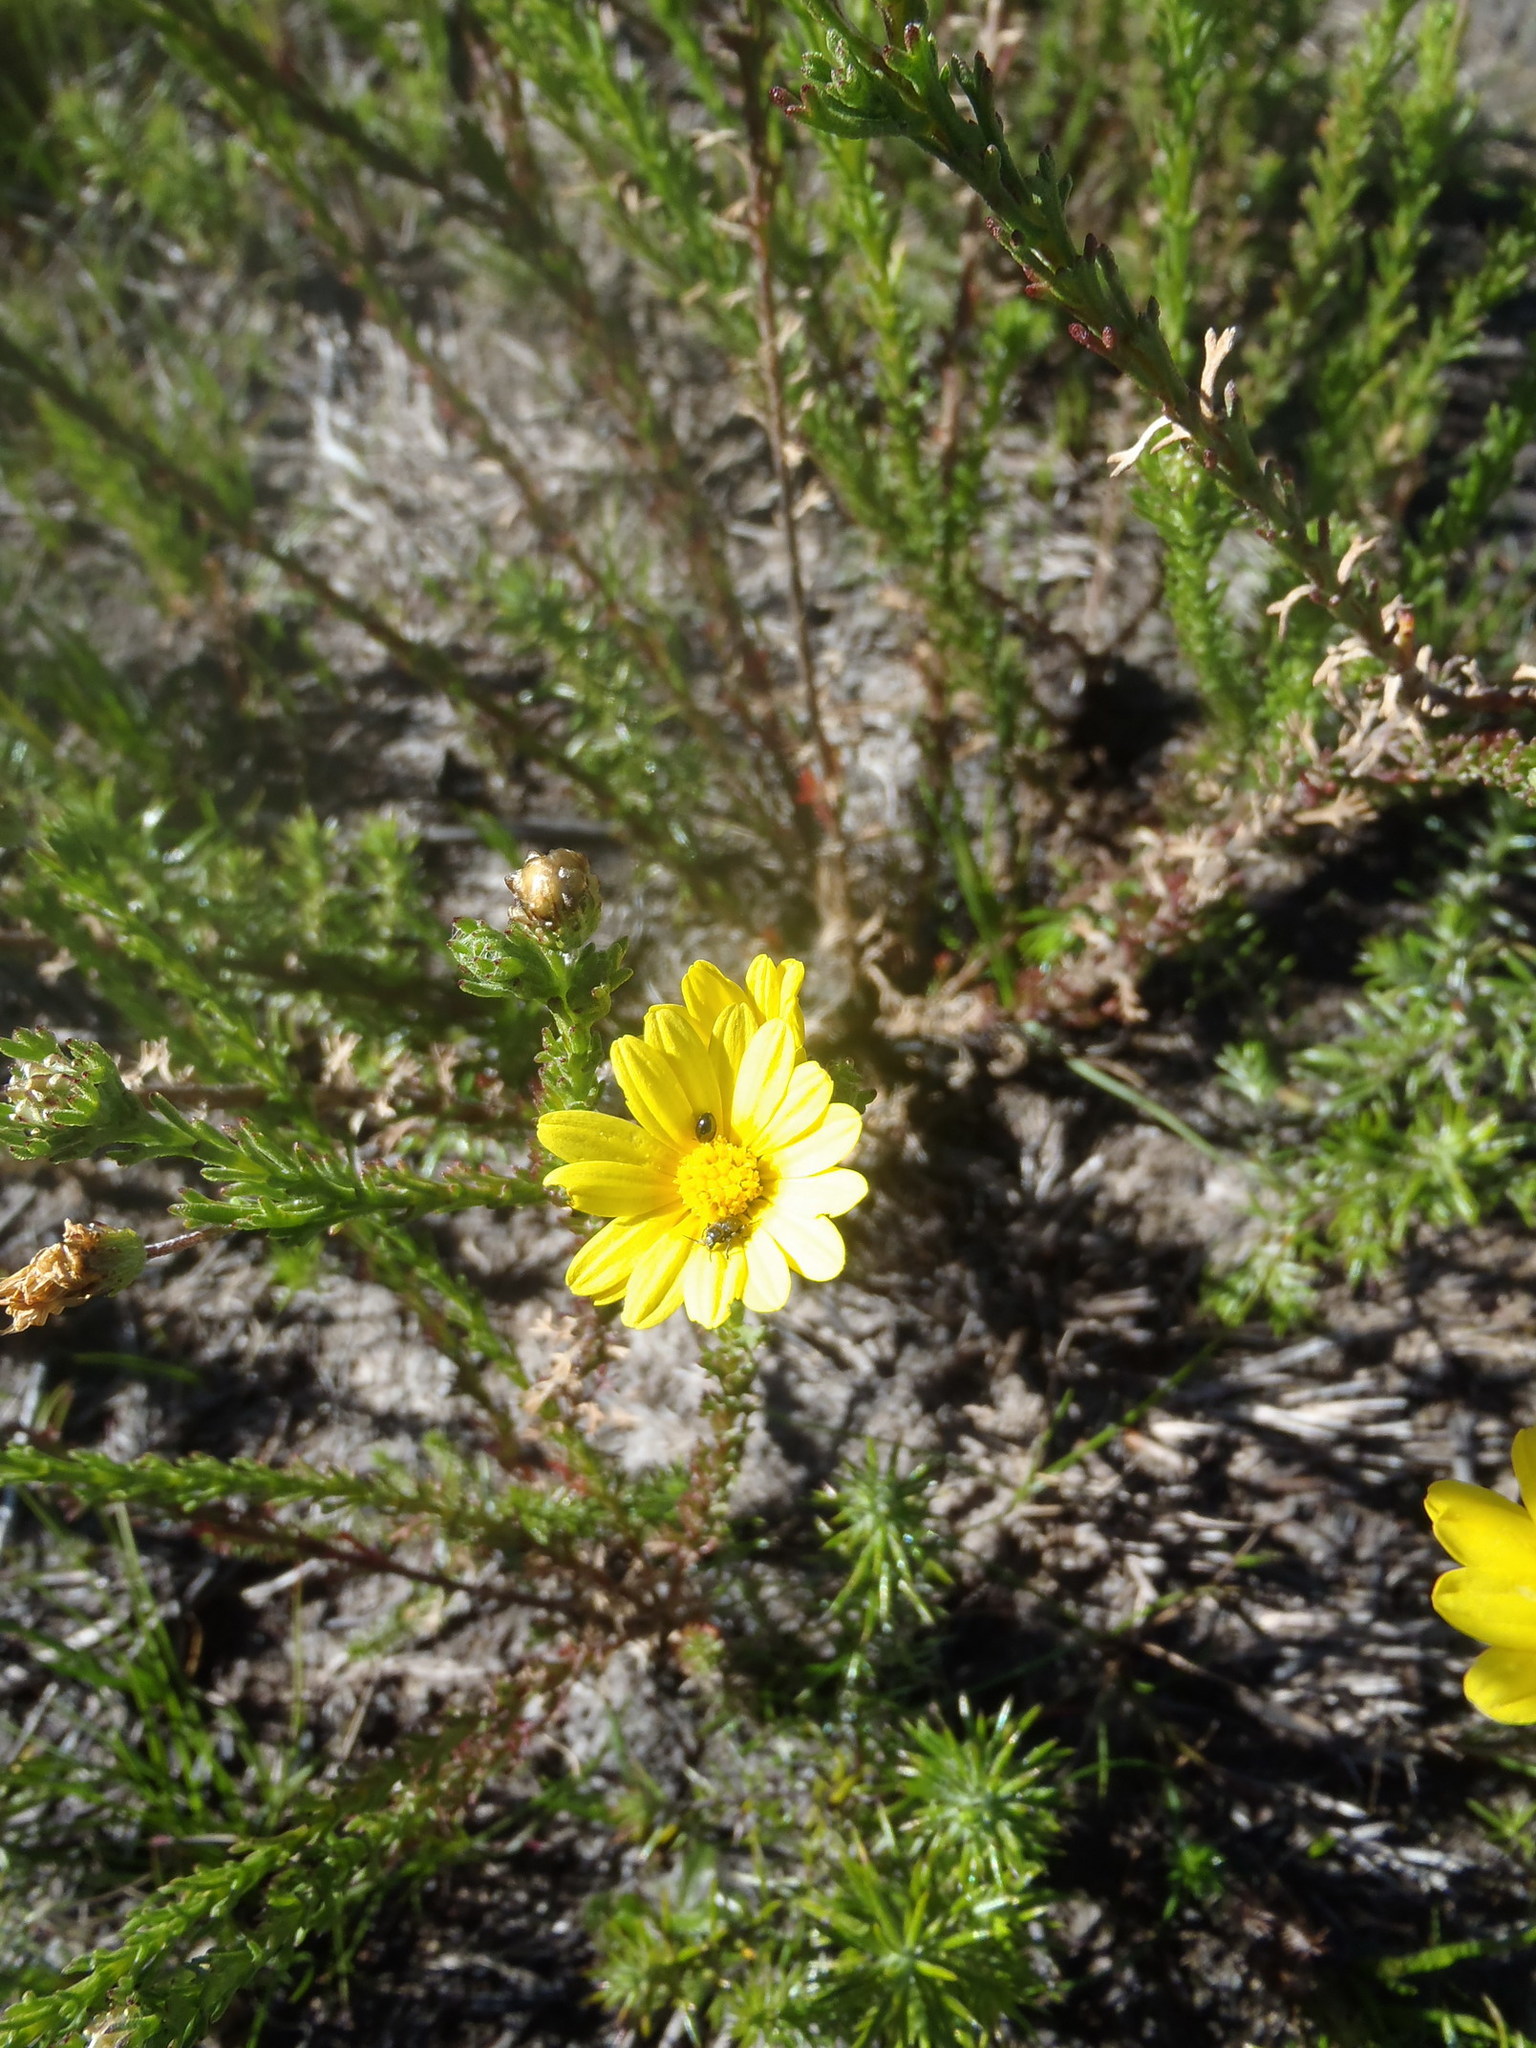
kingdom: Plantae
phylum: Tracheophyta
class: Magnoliopsida
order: Asterales
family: Asteraceae
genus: Ursinia
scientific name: Ursinia trifida
